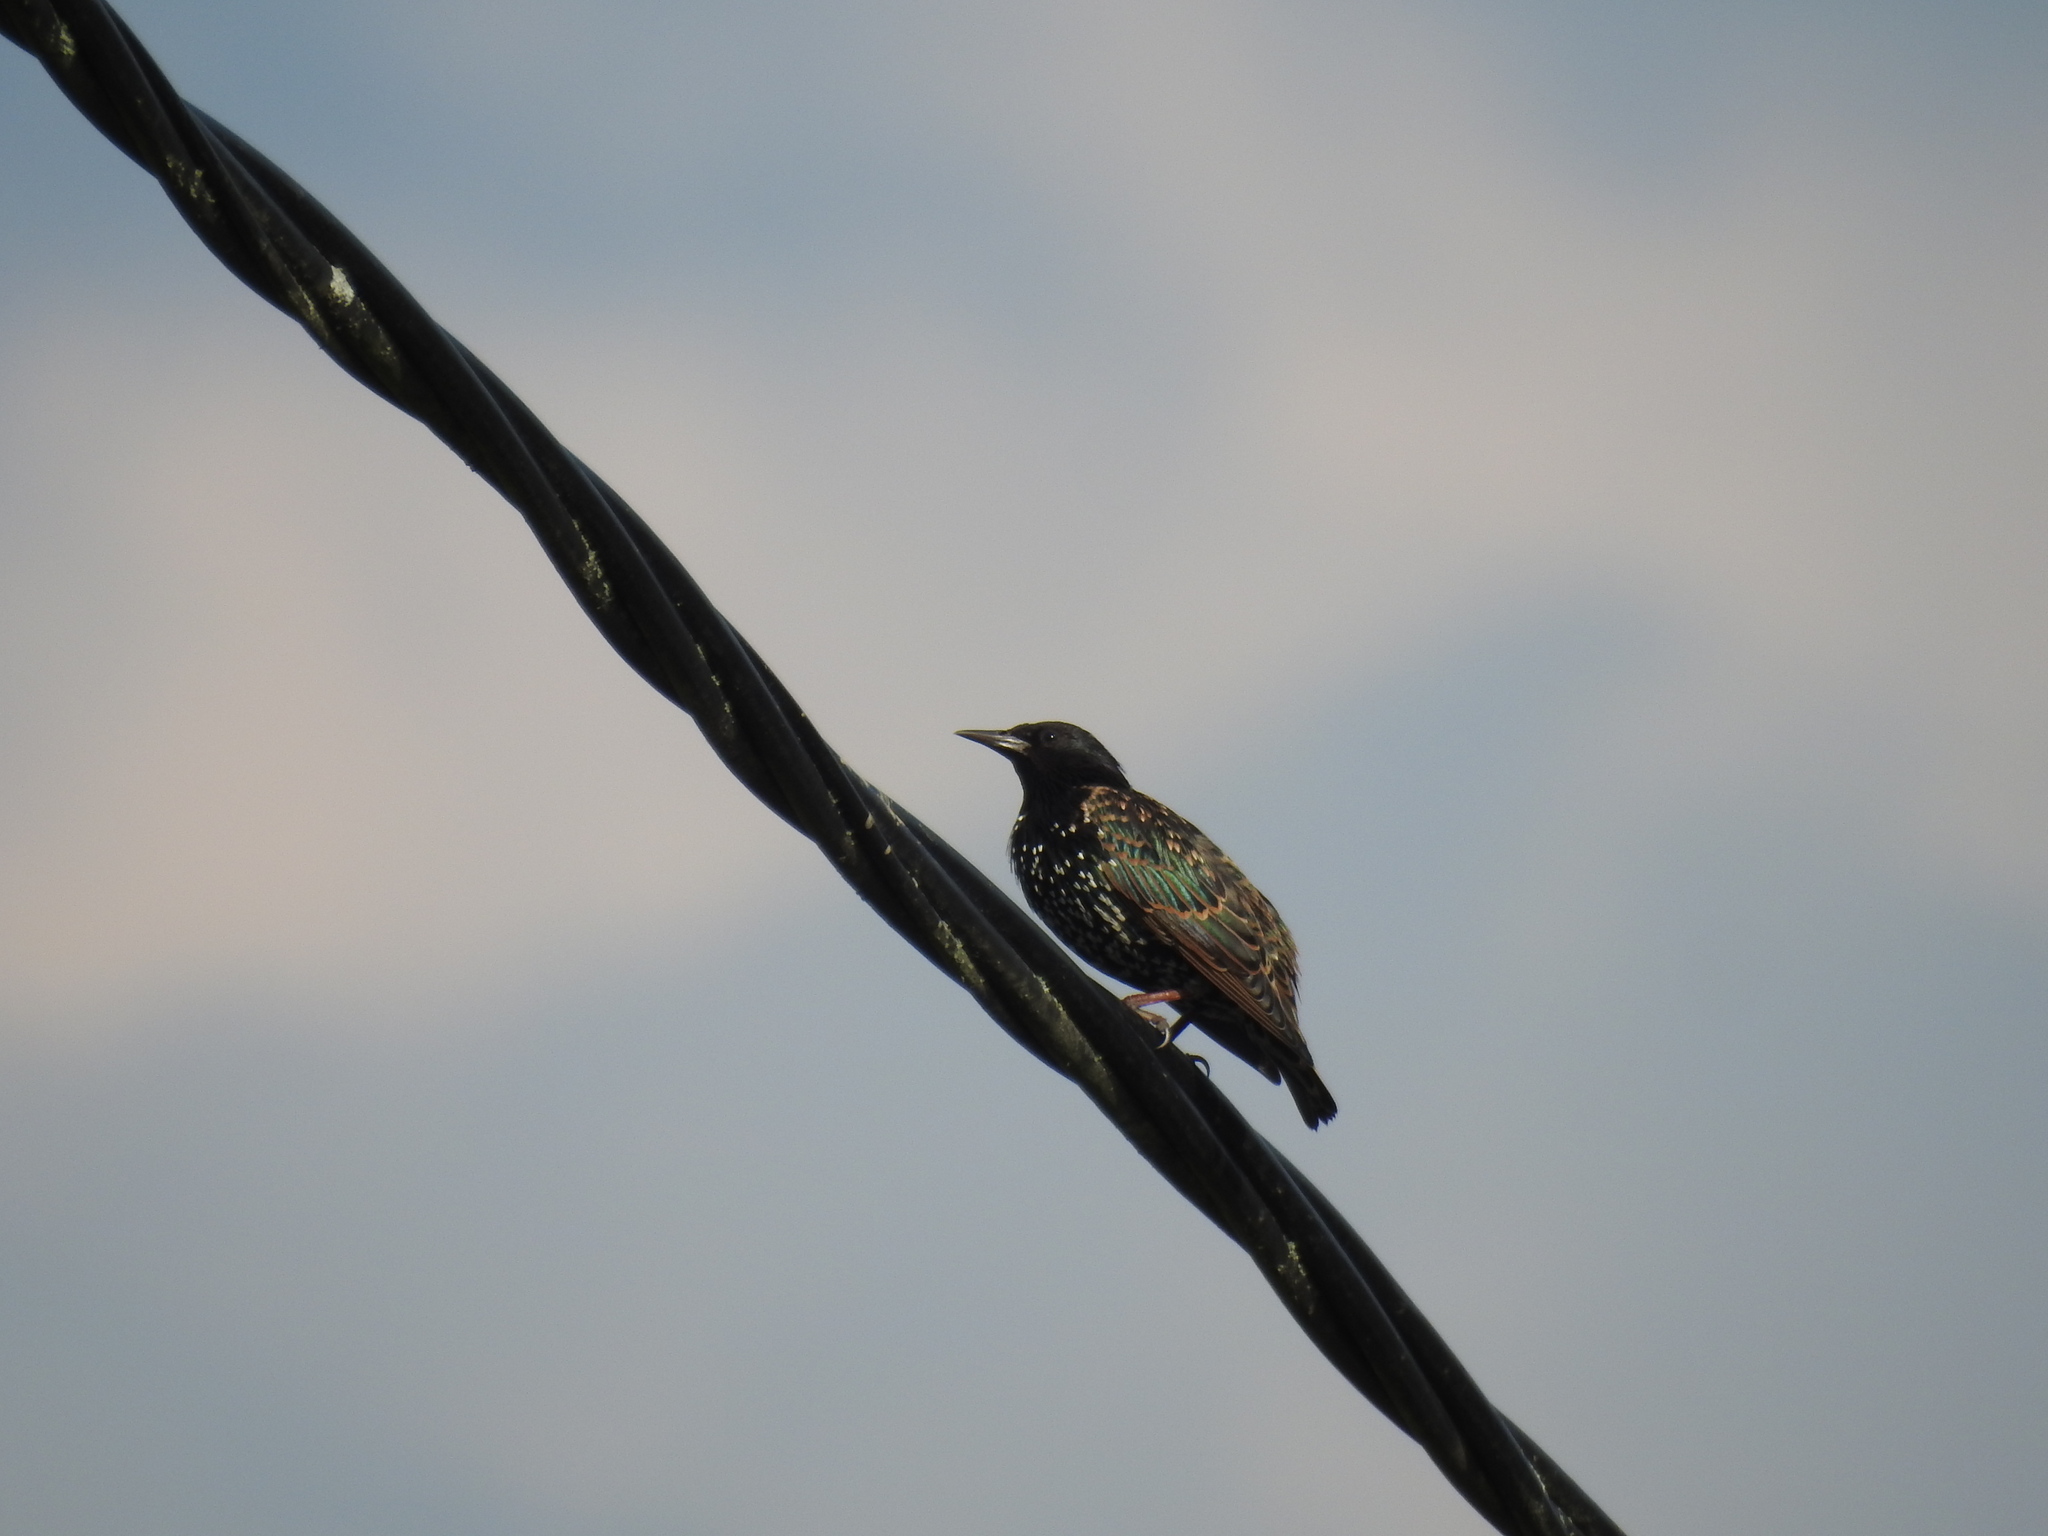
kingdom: Animalia
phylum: Chordata
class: Aves
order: Passeriformes
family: Sturnidae
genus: Sturnus
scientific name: Sturnus vulgaris
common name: Common starling
